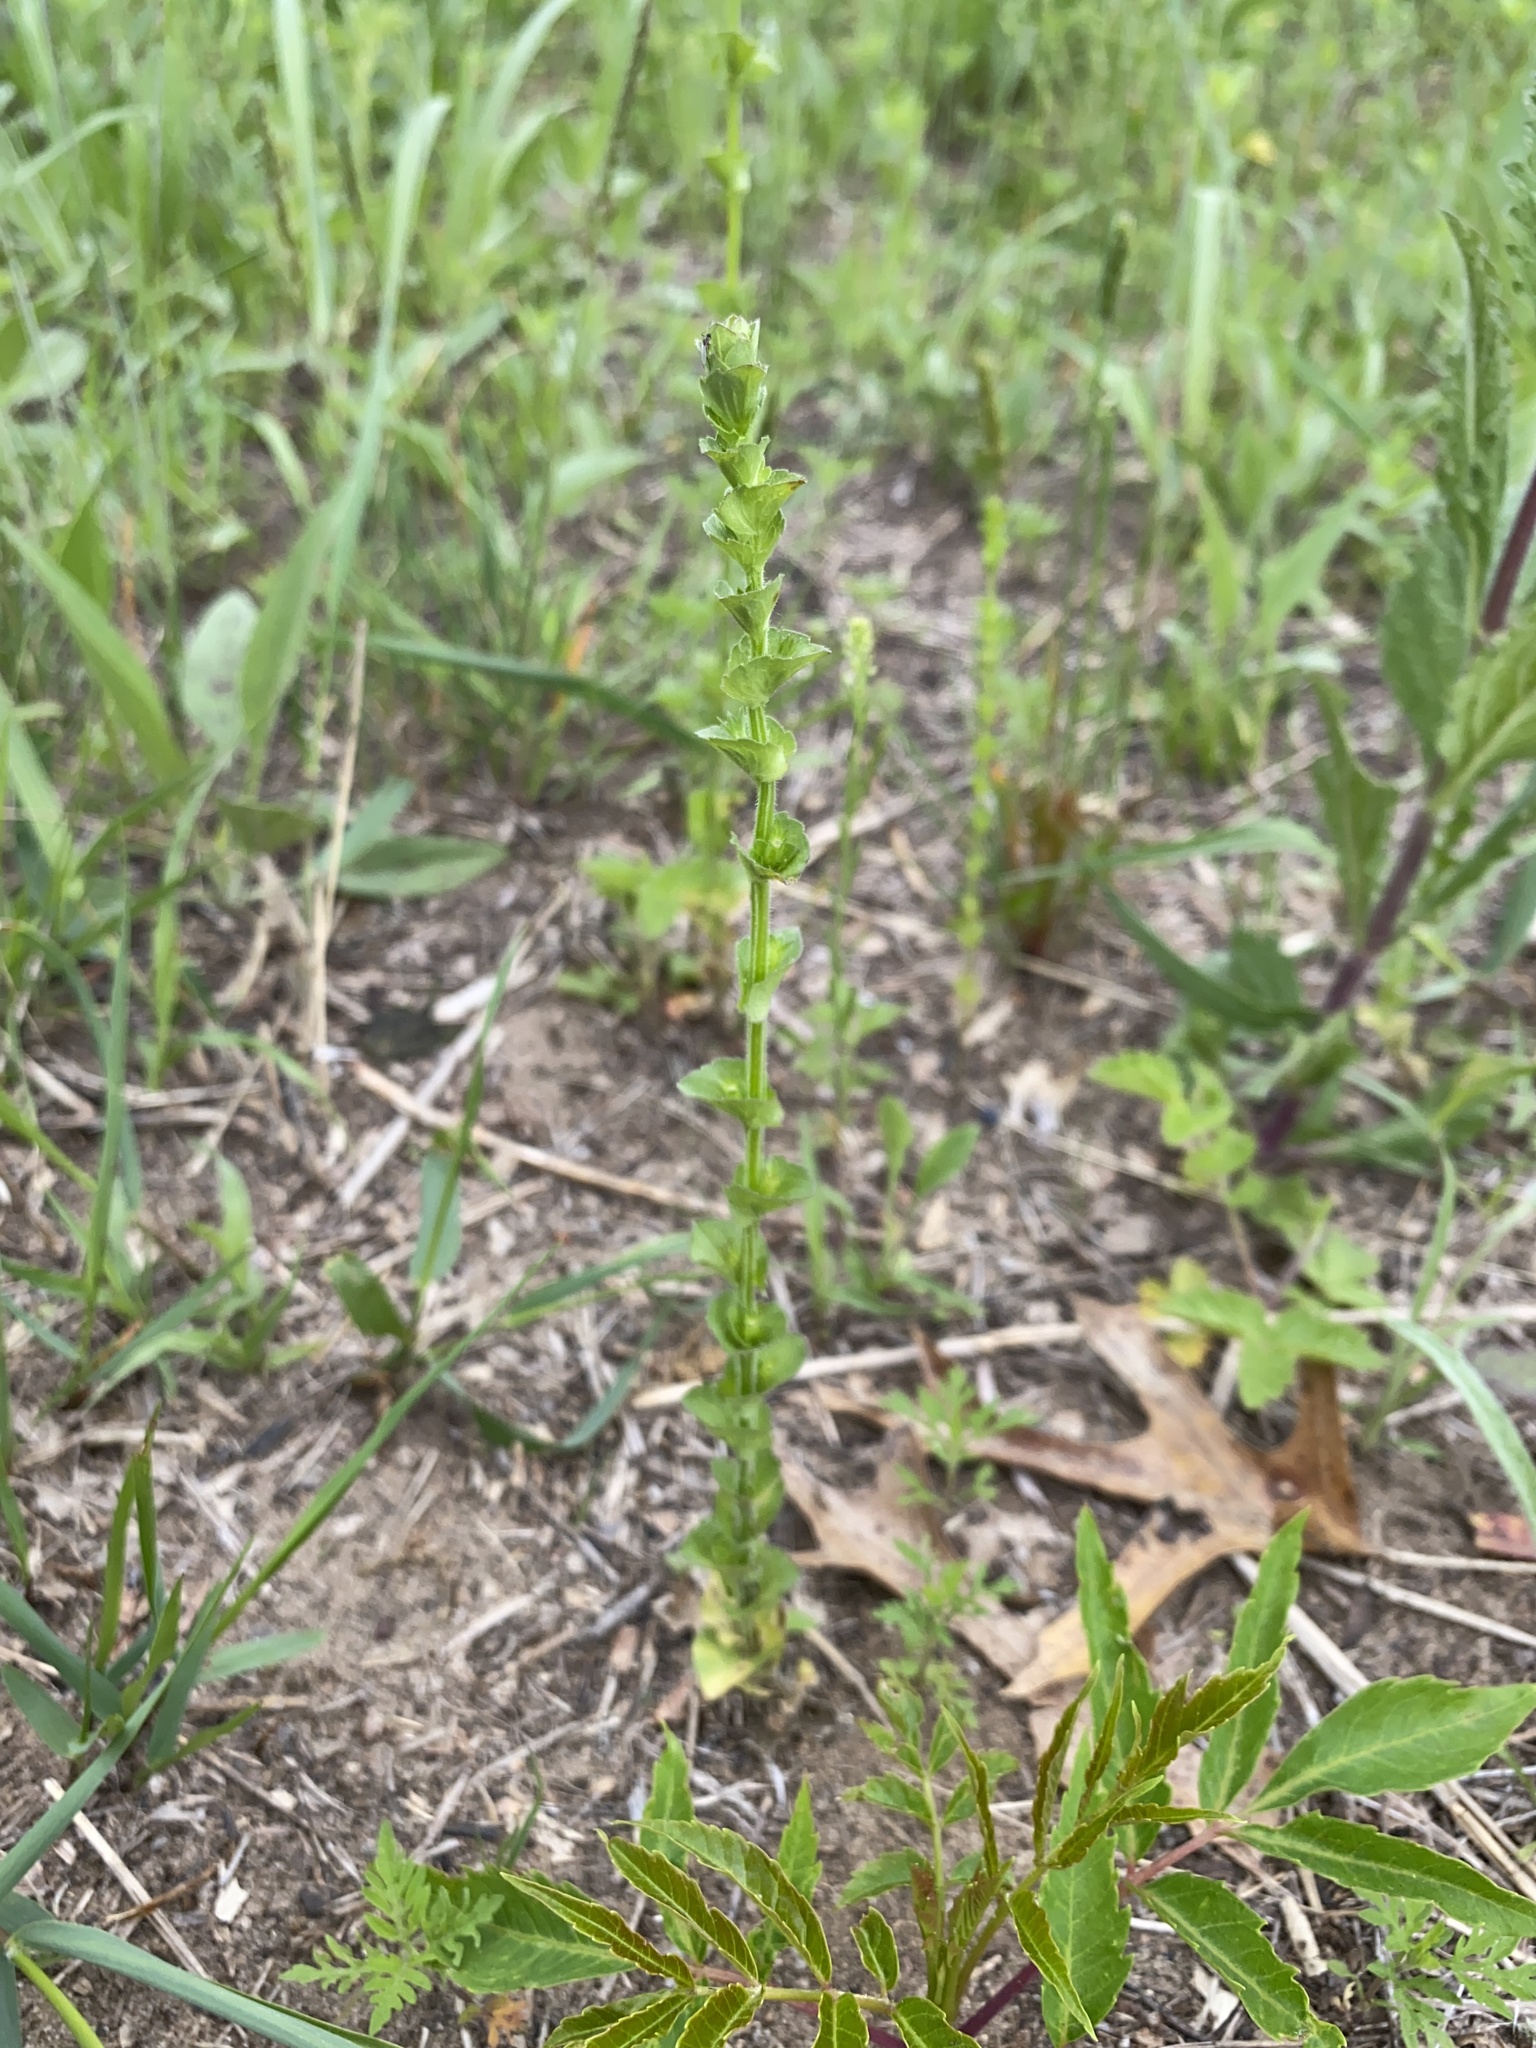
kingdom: Plantae
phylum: Tracheophyta
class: Magnoliopsida
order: Asterales
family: Campanulaceae
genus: Triodanis
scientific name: Triodanis perfoliata
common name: Clasping venus' looking-glass
